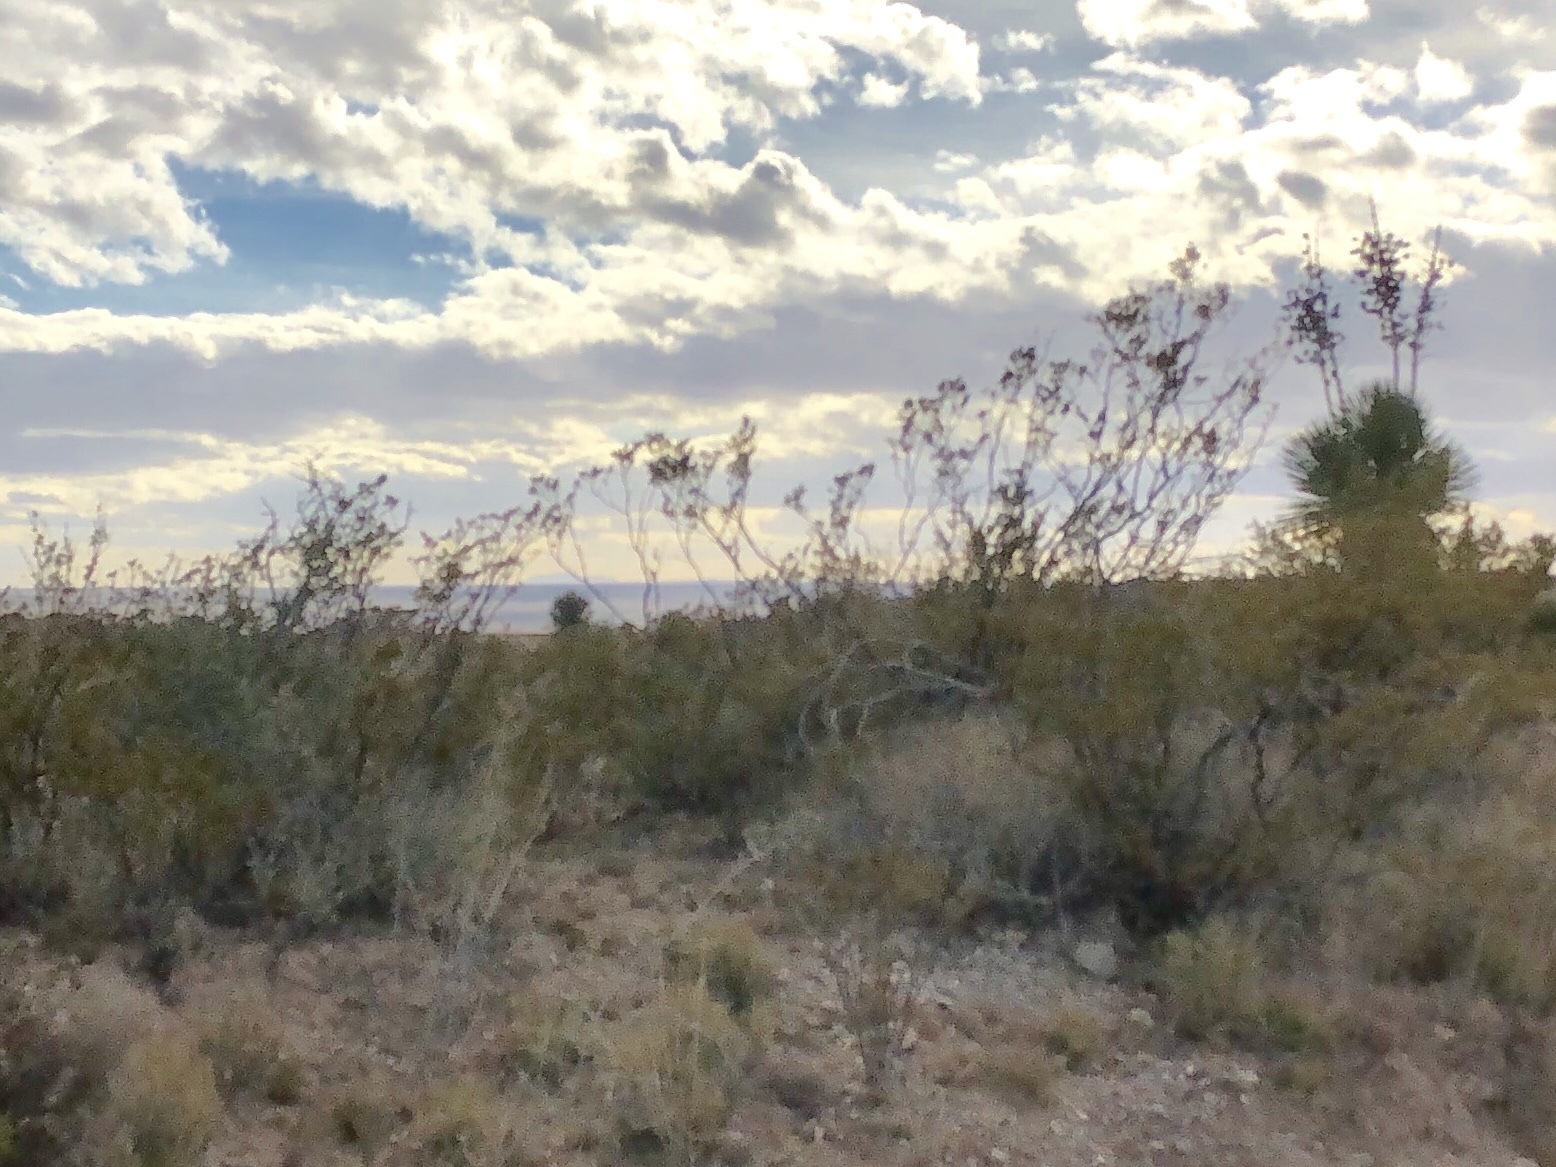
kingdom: Plantae
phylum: Tracheophyta
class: Magnoliopsida
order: Zygophyllales
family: Zygophyllaceae
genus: Larrea
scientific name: Larrea tridentata
